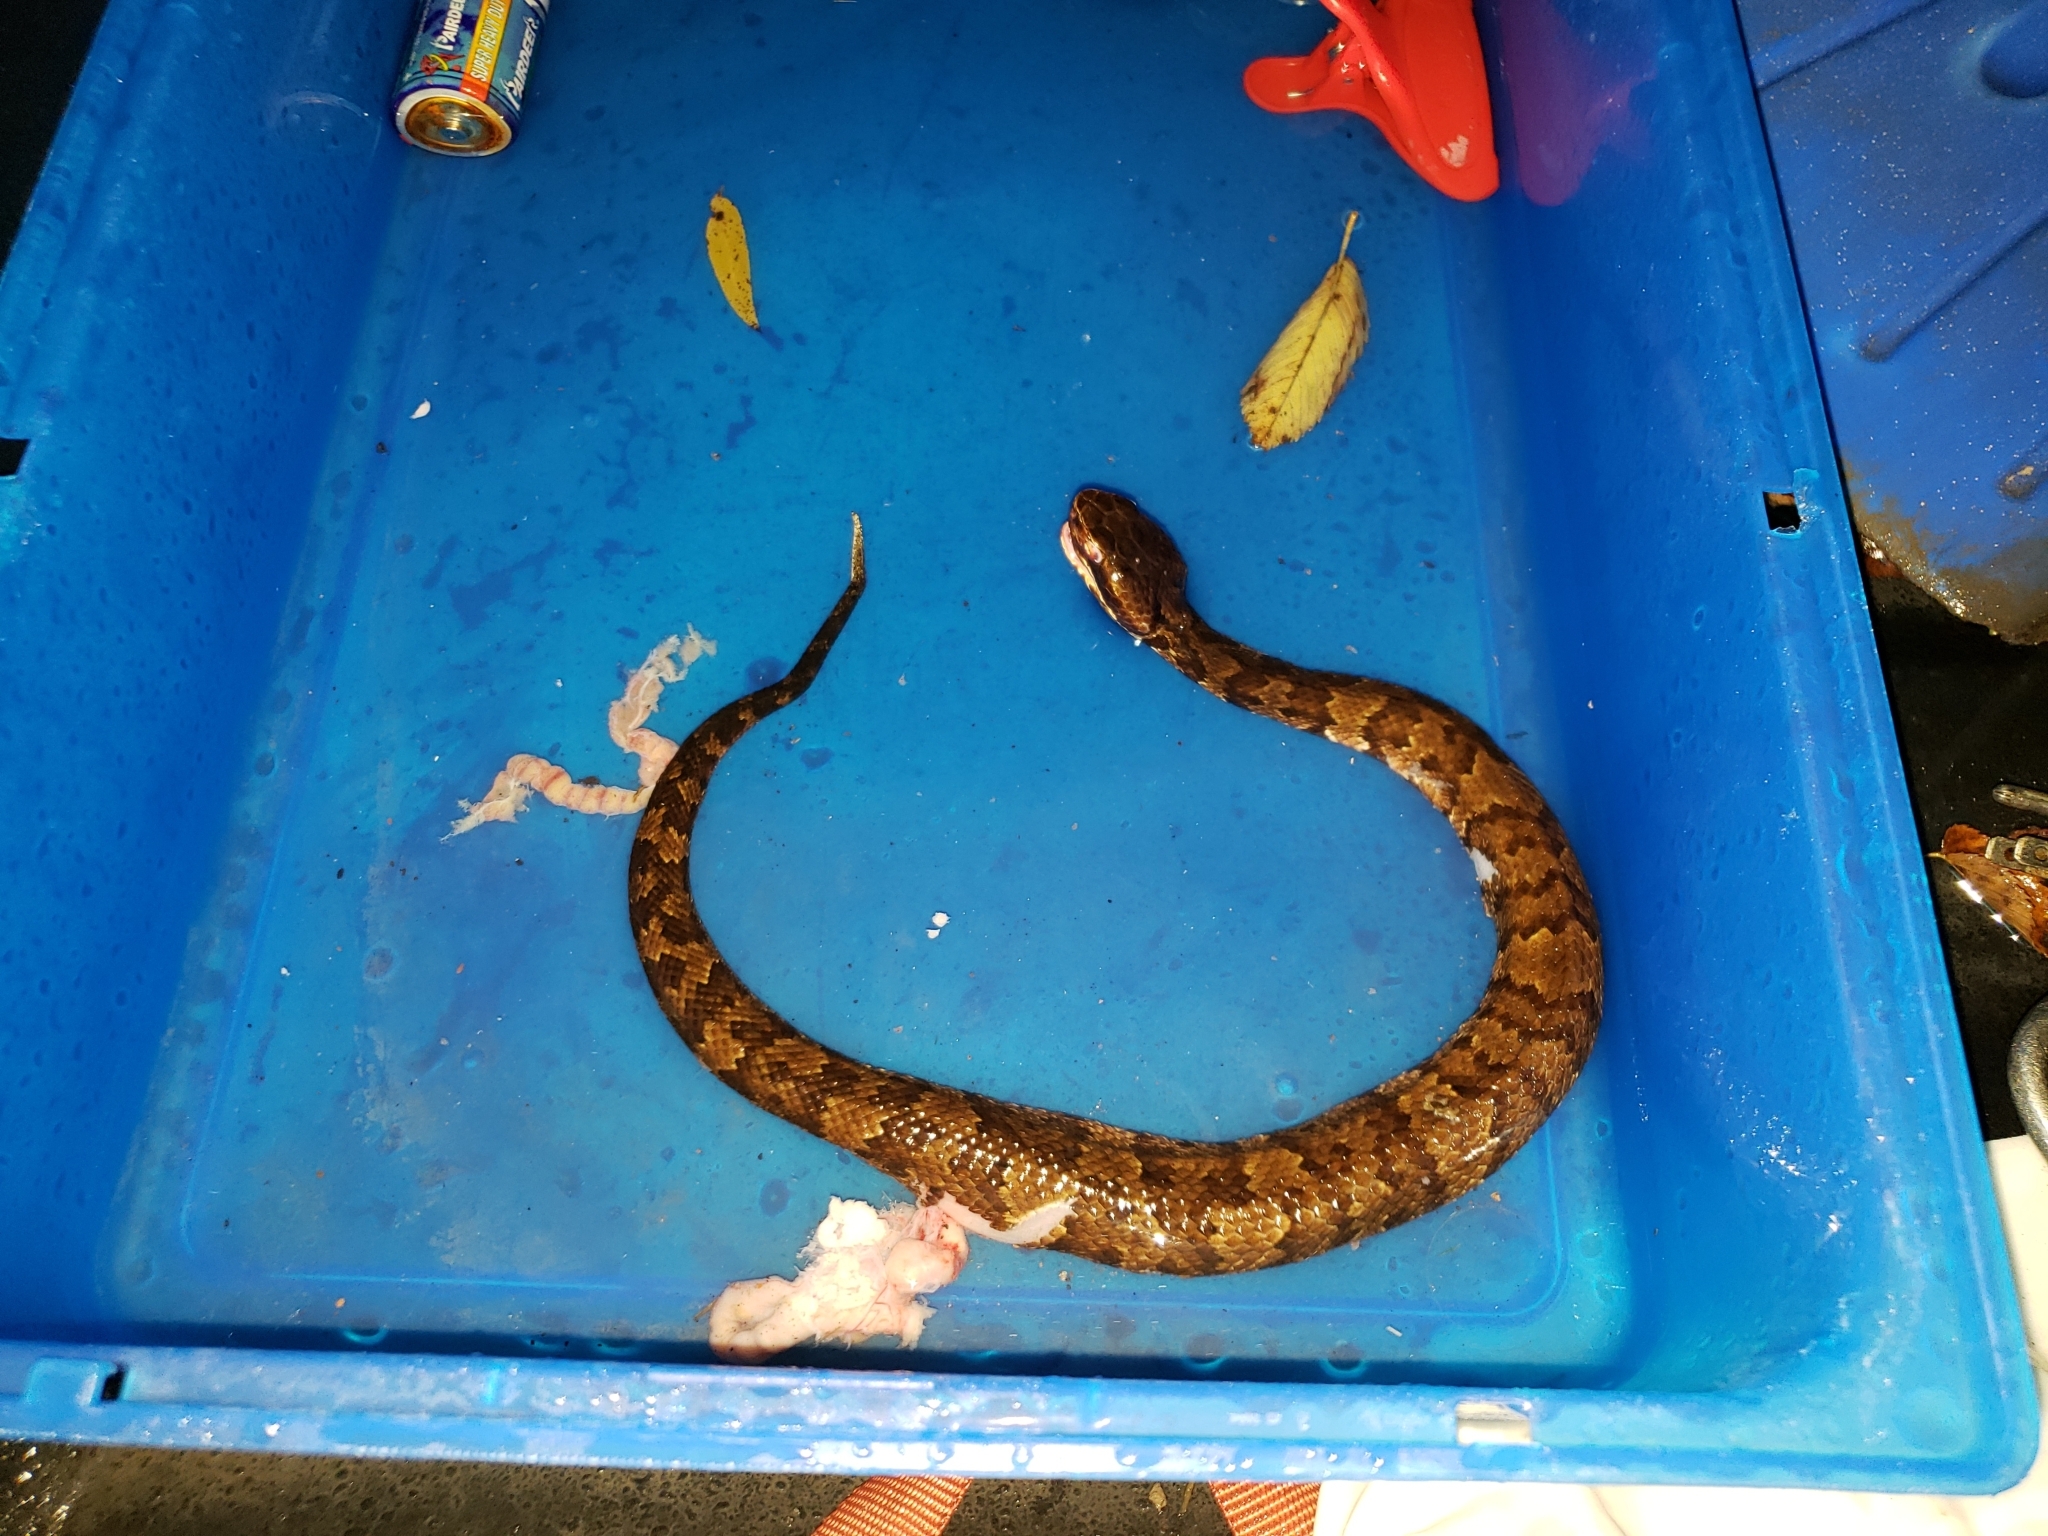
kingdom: Animalia
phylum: Chordata
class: Squamata
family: Viperidae
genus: Agkistrodon
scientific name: Agkistrodon piscivorus
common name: Cottonmouth
